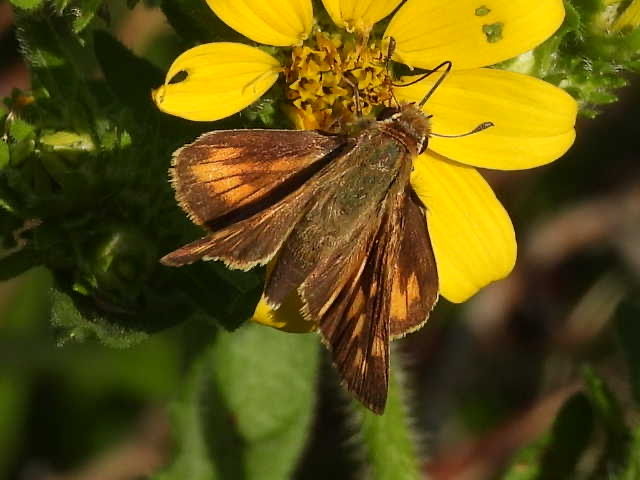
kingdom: Animalia
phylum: Arthropoda
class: Insecta
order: Lepidoptera
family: Hesperiidae
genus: Hylephila
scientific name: Hylephila phyleus
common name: Fiery skipper
